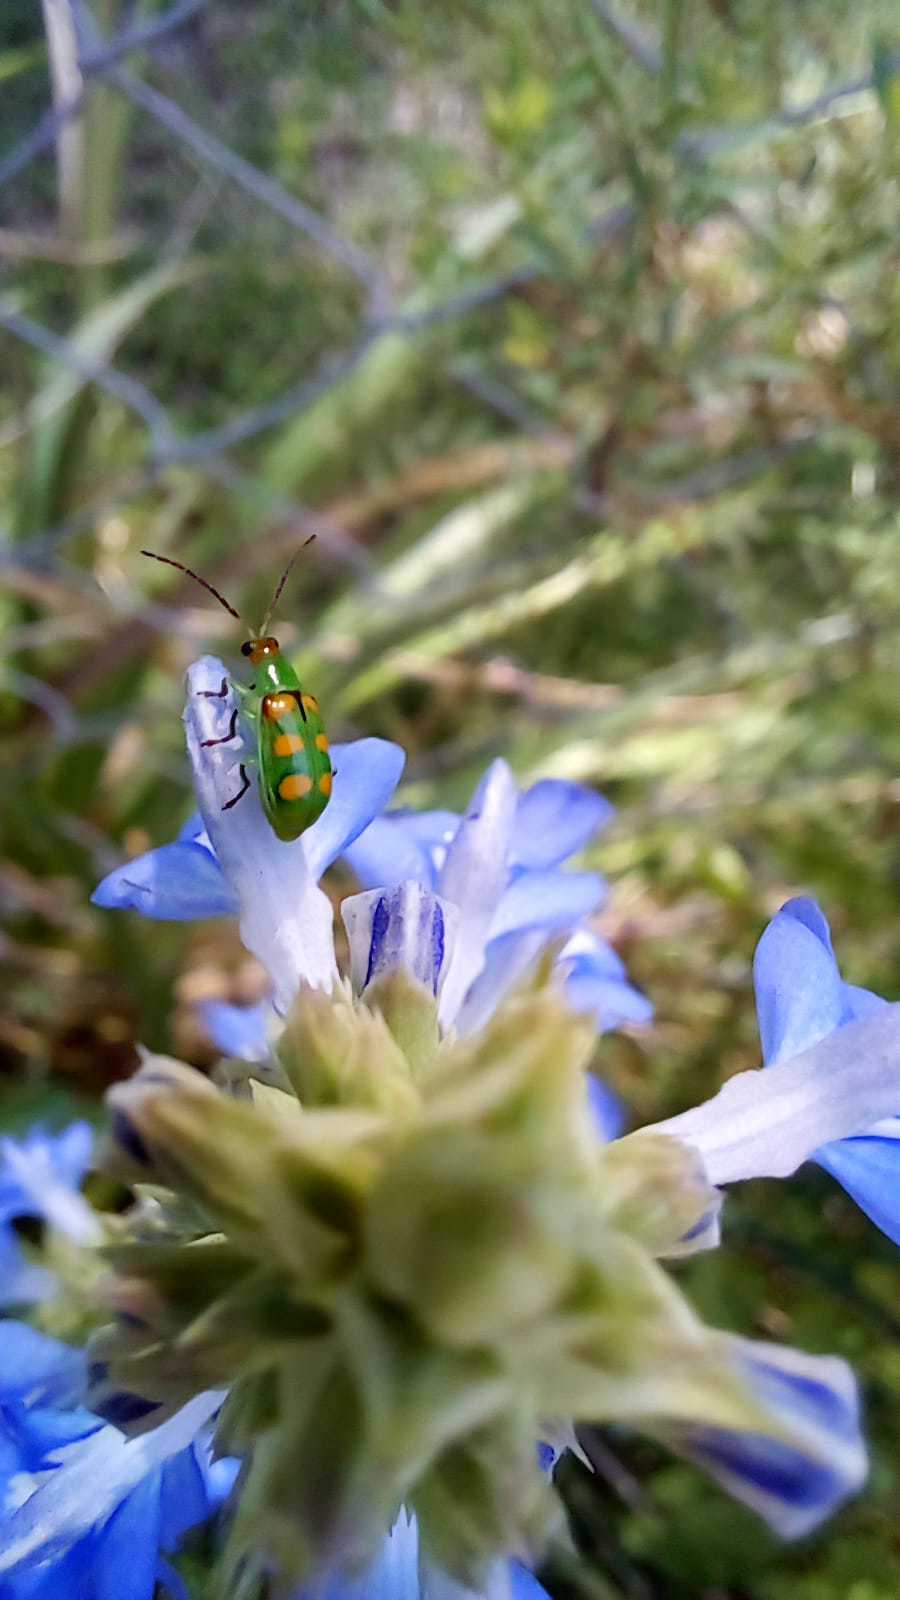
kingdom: Animalia
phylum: Arthropoda
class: Insecta
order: Coleoptera
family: Chrysomelidae
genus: Diabrotica
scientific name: Diabrotica speciosa
